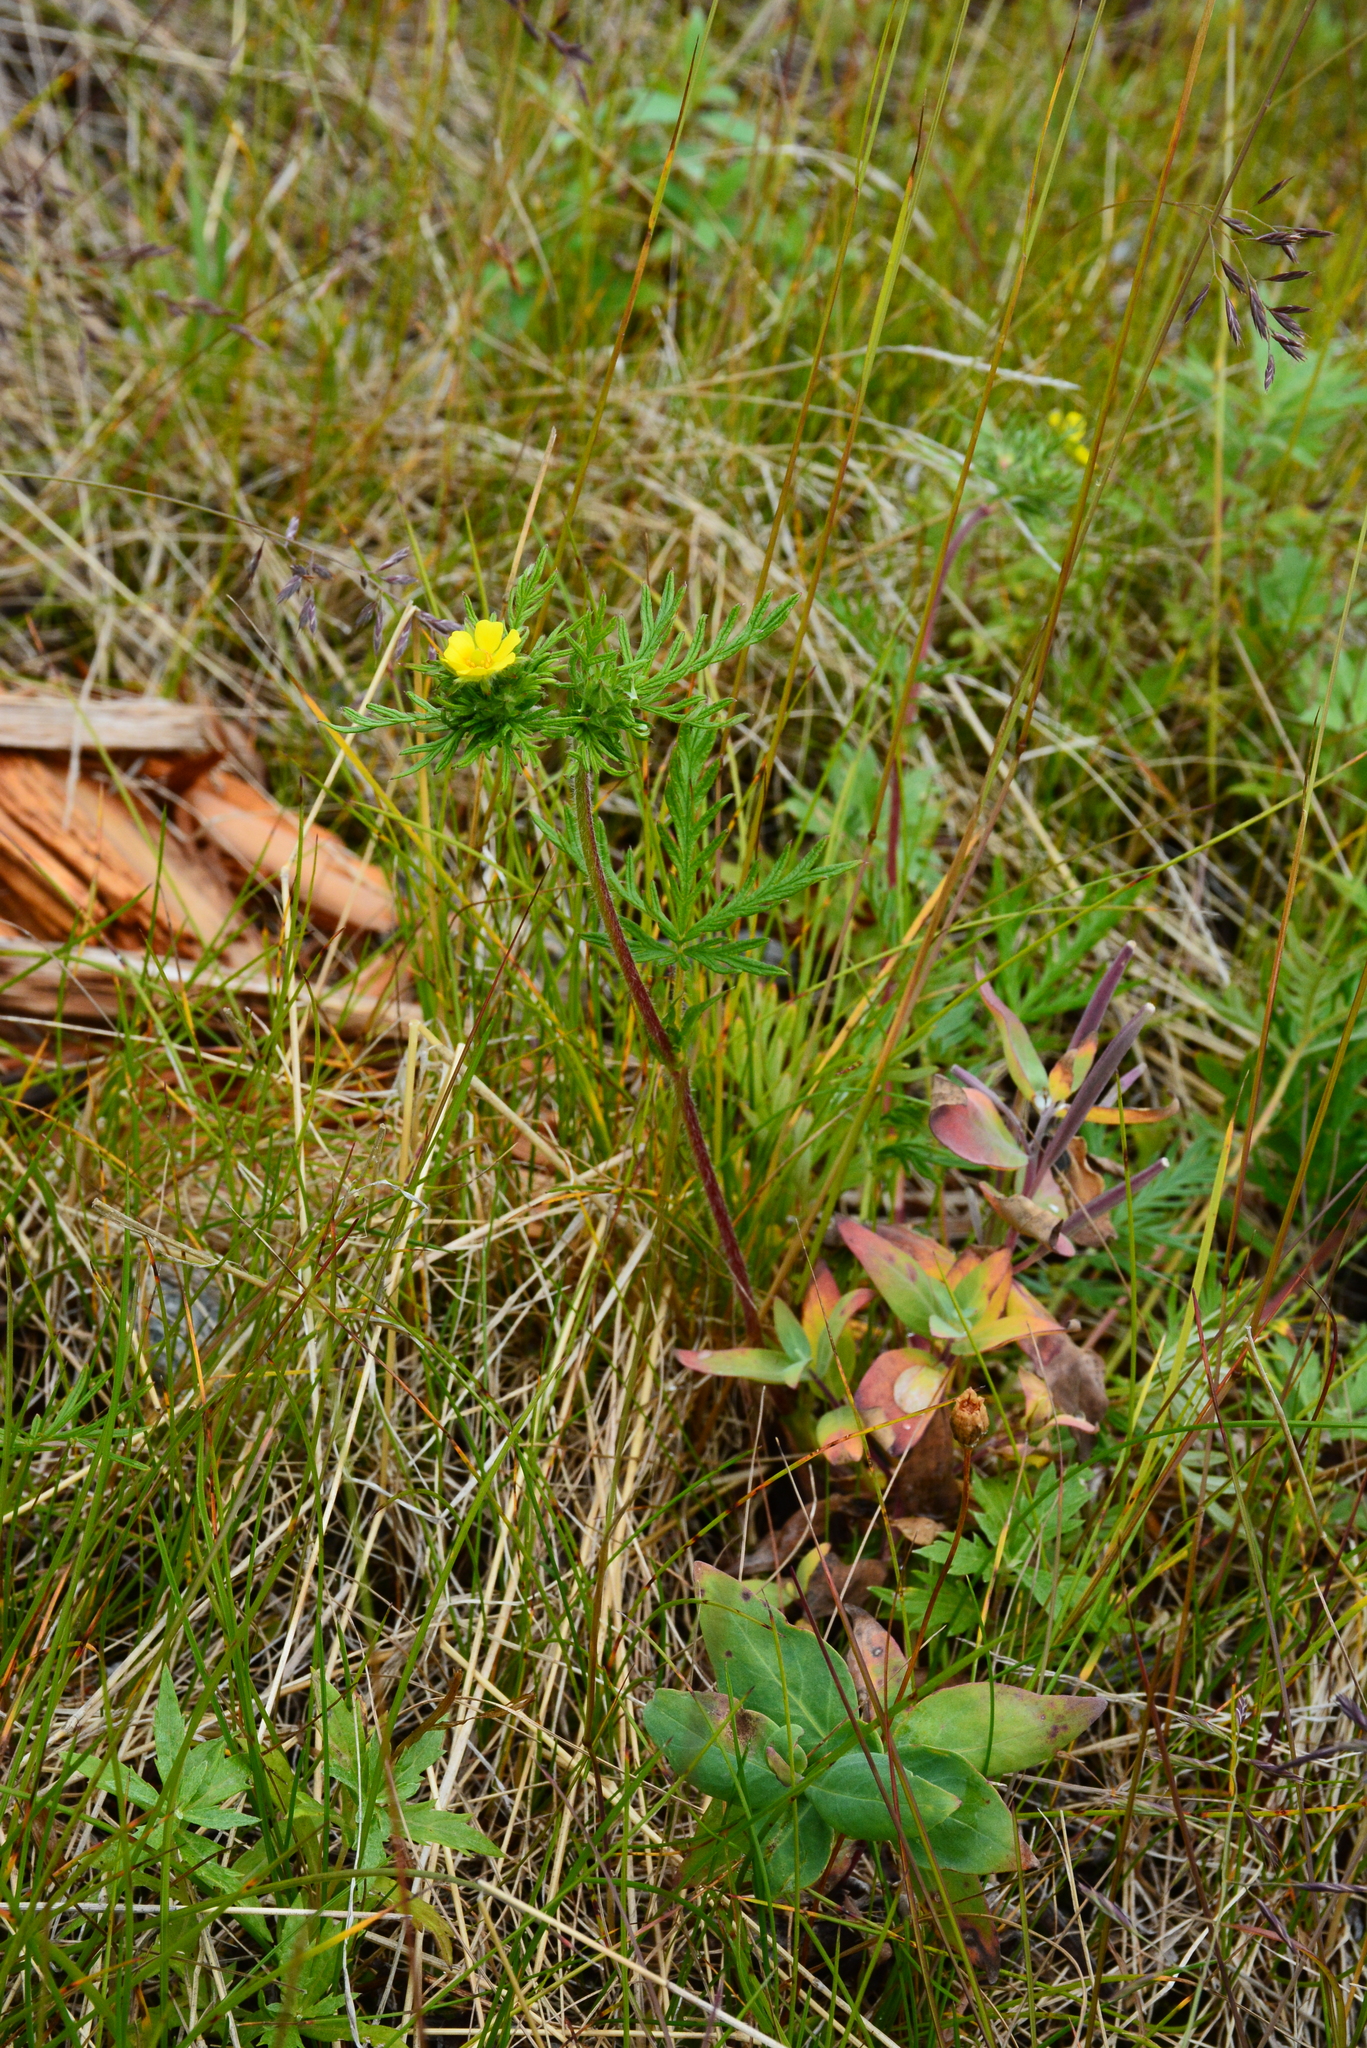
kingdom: Plantae
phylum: Tracheophyta
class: Magnoliopsida
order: Rosales
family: Rosaceae
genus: Potentilla
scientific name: Potentilla tergemina
